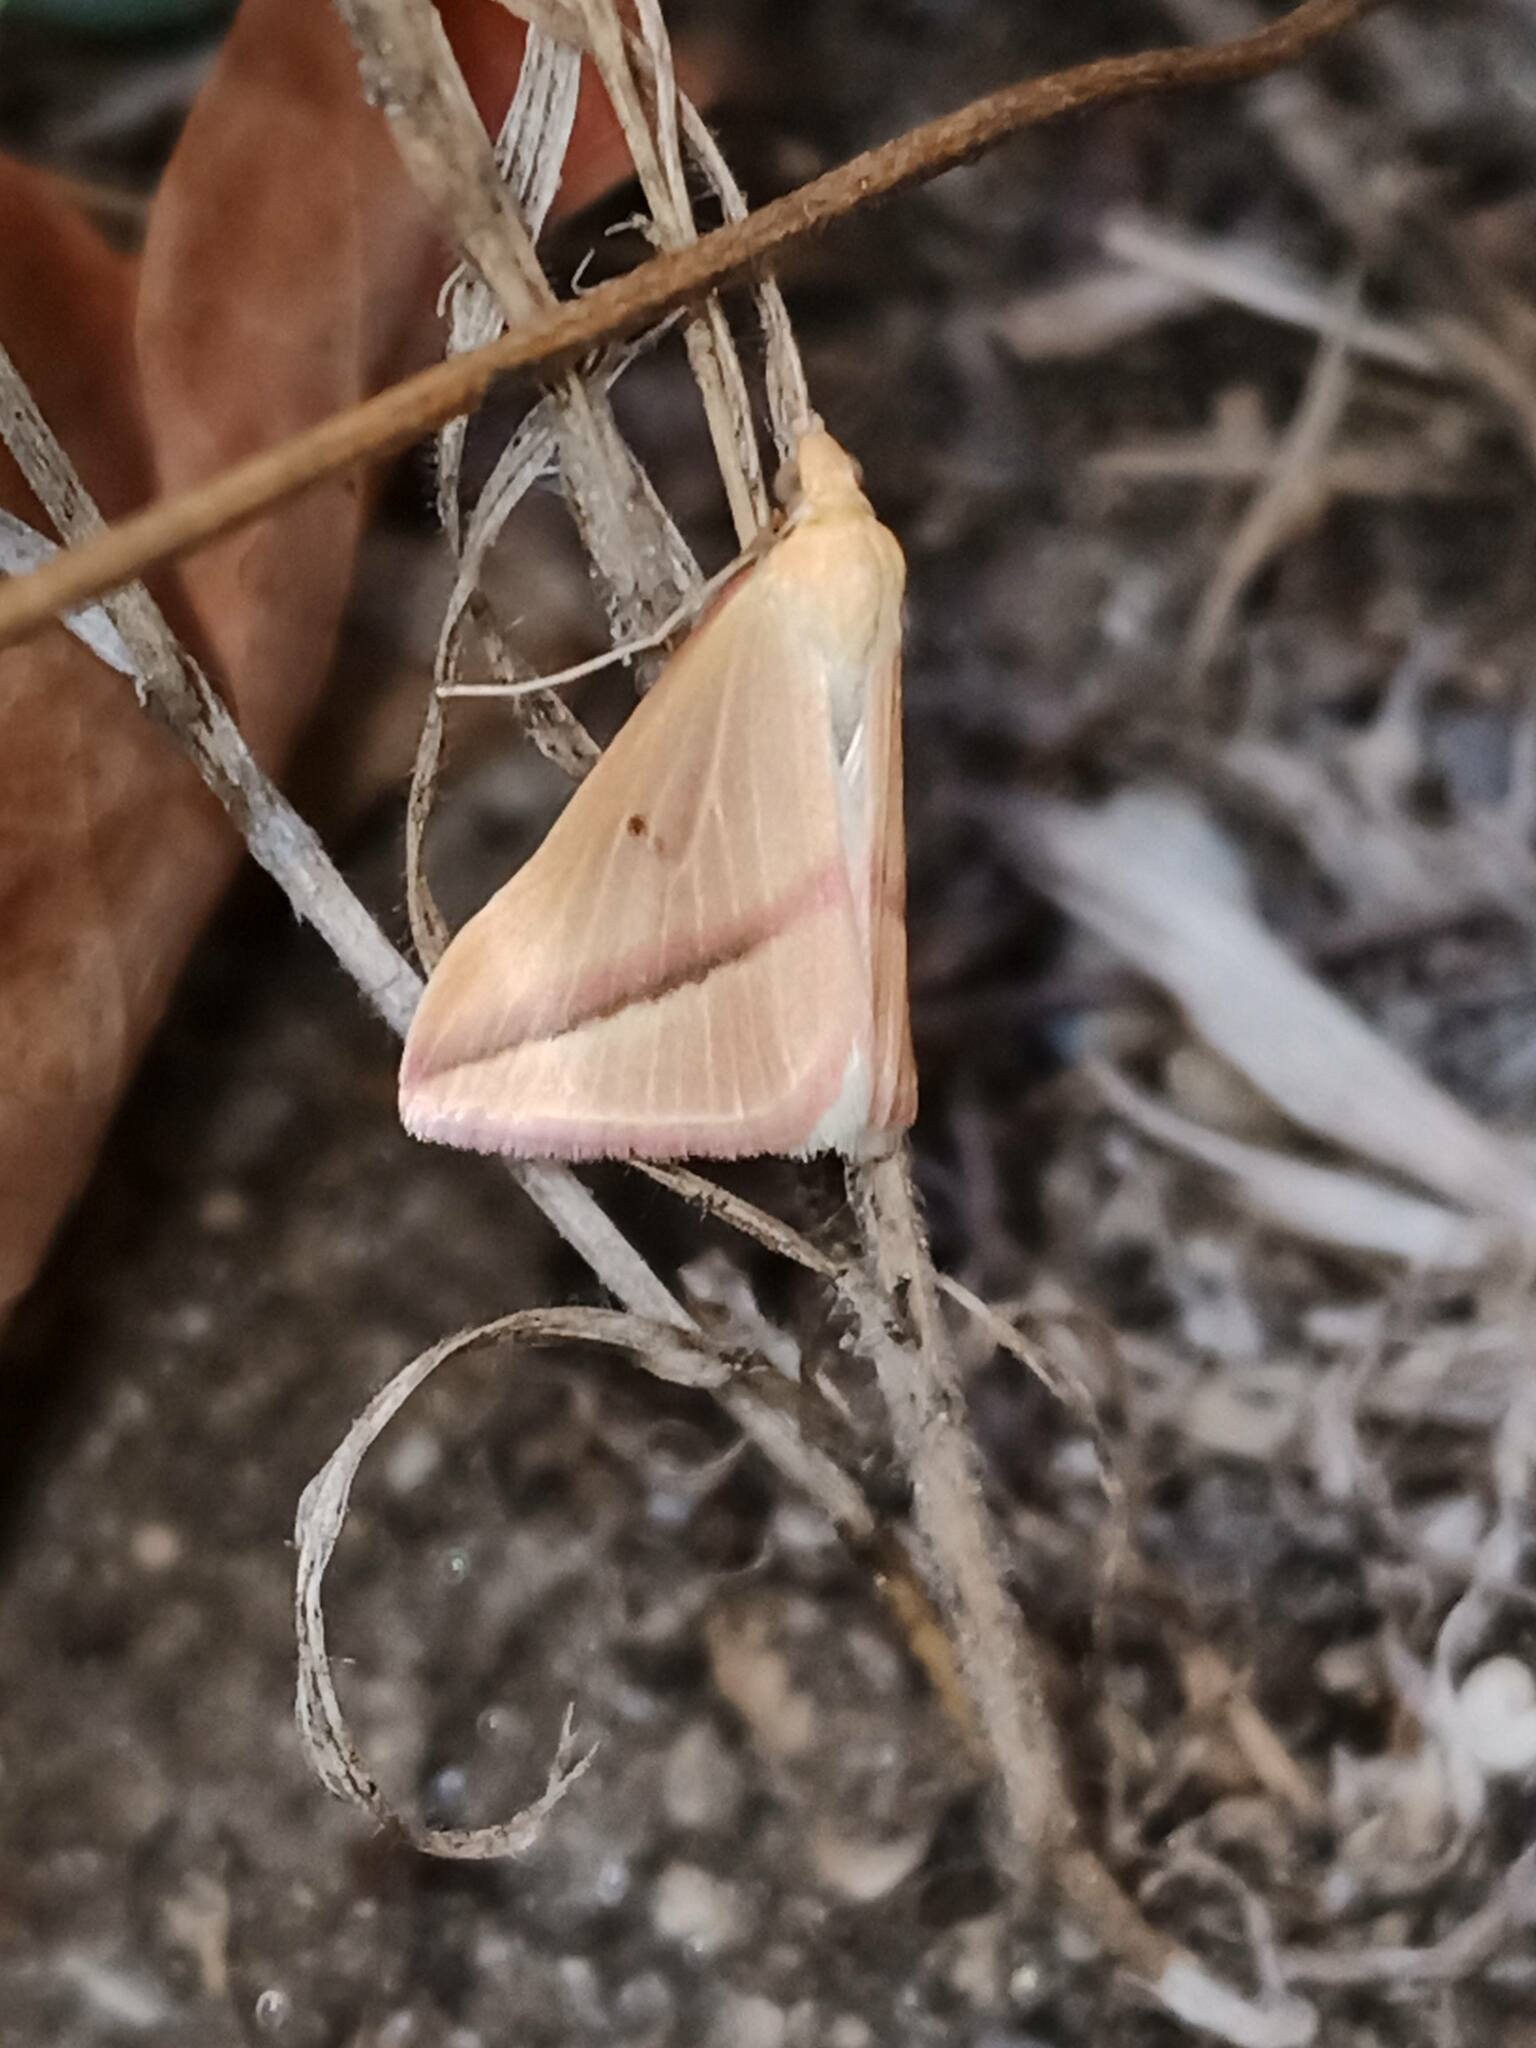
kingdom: Animalia
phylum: Arthropoda
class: Insecta
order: Lepidoptera
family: Geometridae
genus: Rhodometra
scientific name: Rhodometra sacraria
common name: Vestal
